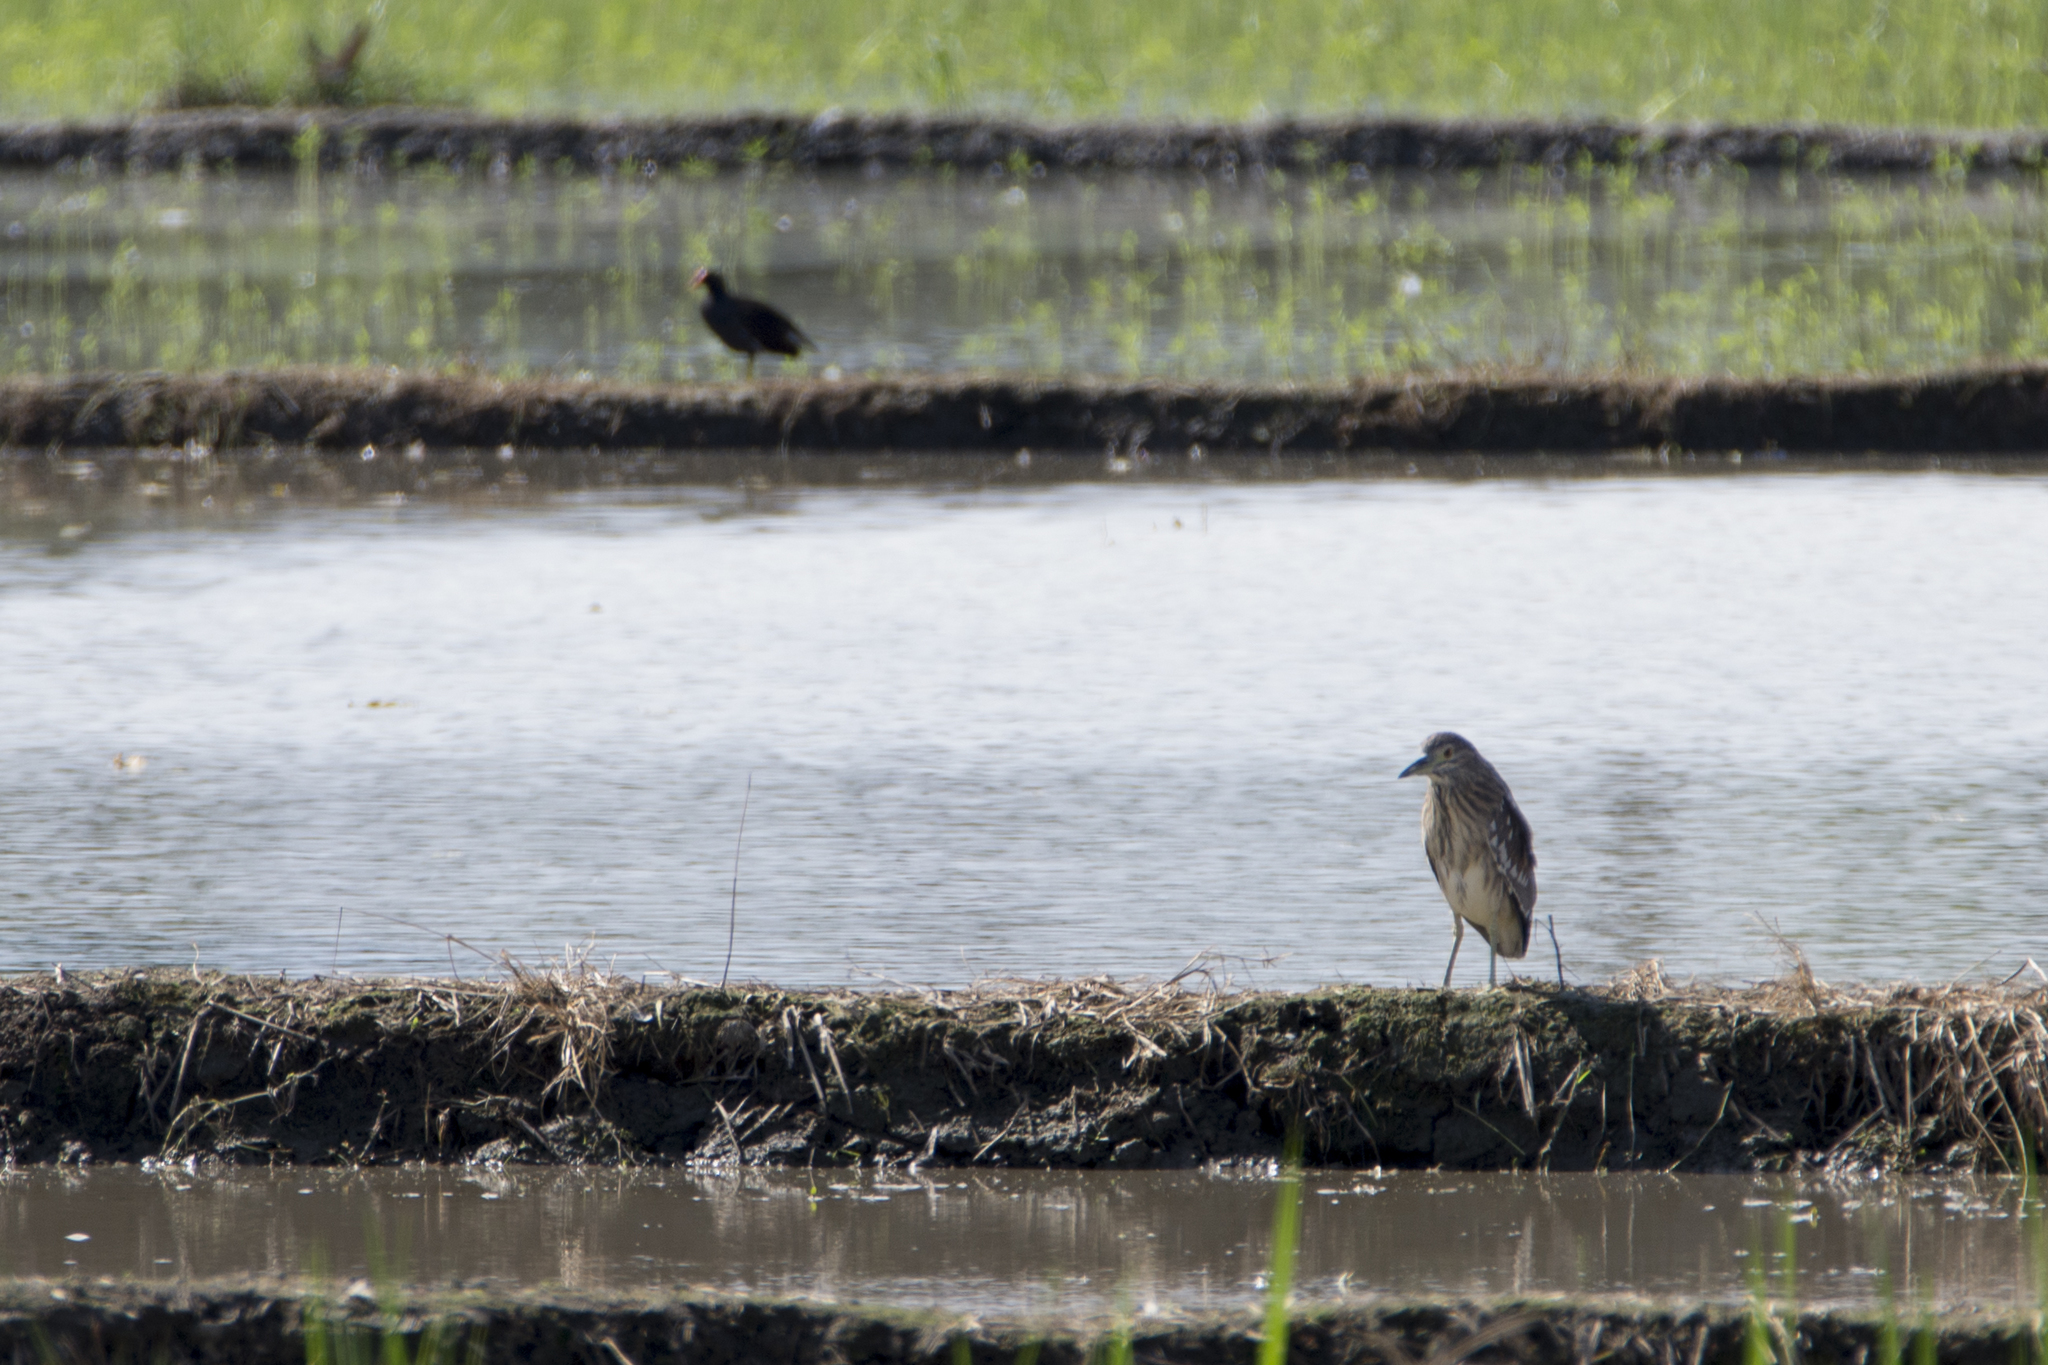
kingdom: Animalia
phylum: Chordata
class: Aves
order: Pelecaniformes
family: Ardeidae
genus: Nycticorax
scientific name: Nycticorax nycticorax
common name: Black-crowned night heron
